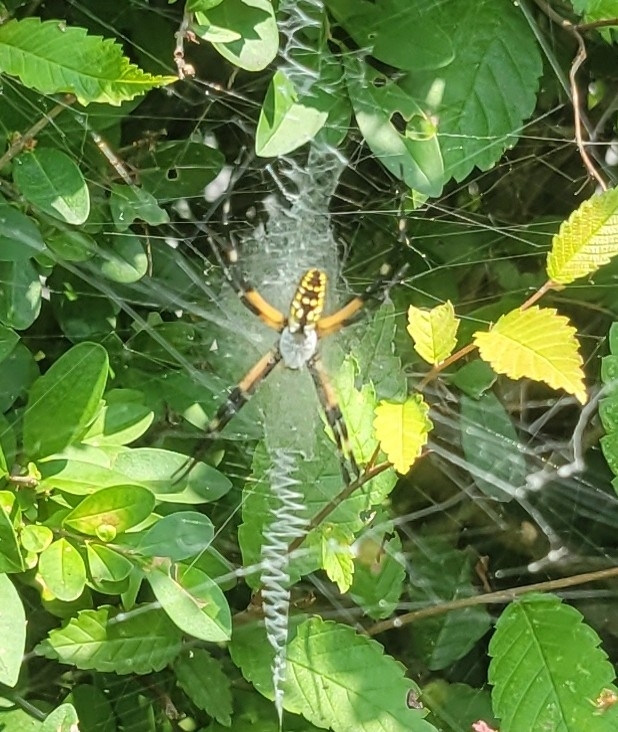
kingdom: Animalia
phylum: Arthropoda
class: Arachnida
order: Araneae
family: Araneidae
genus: Argiope
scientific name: Argiope aurantia
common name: Orb weavers
